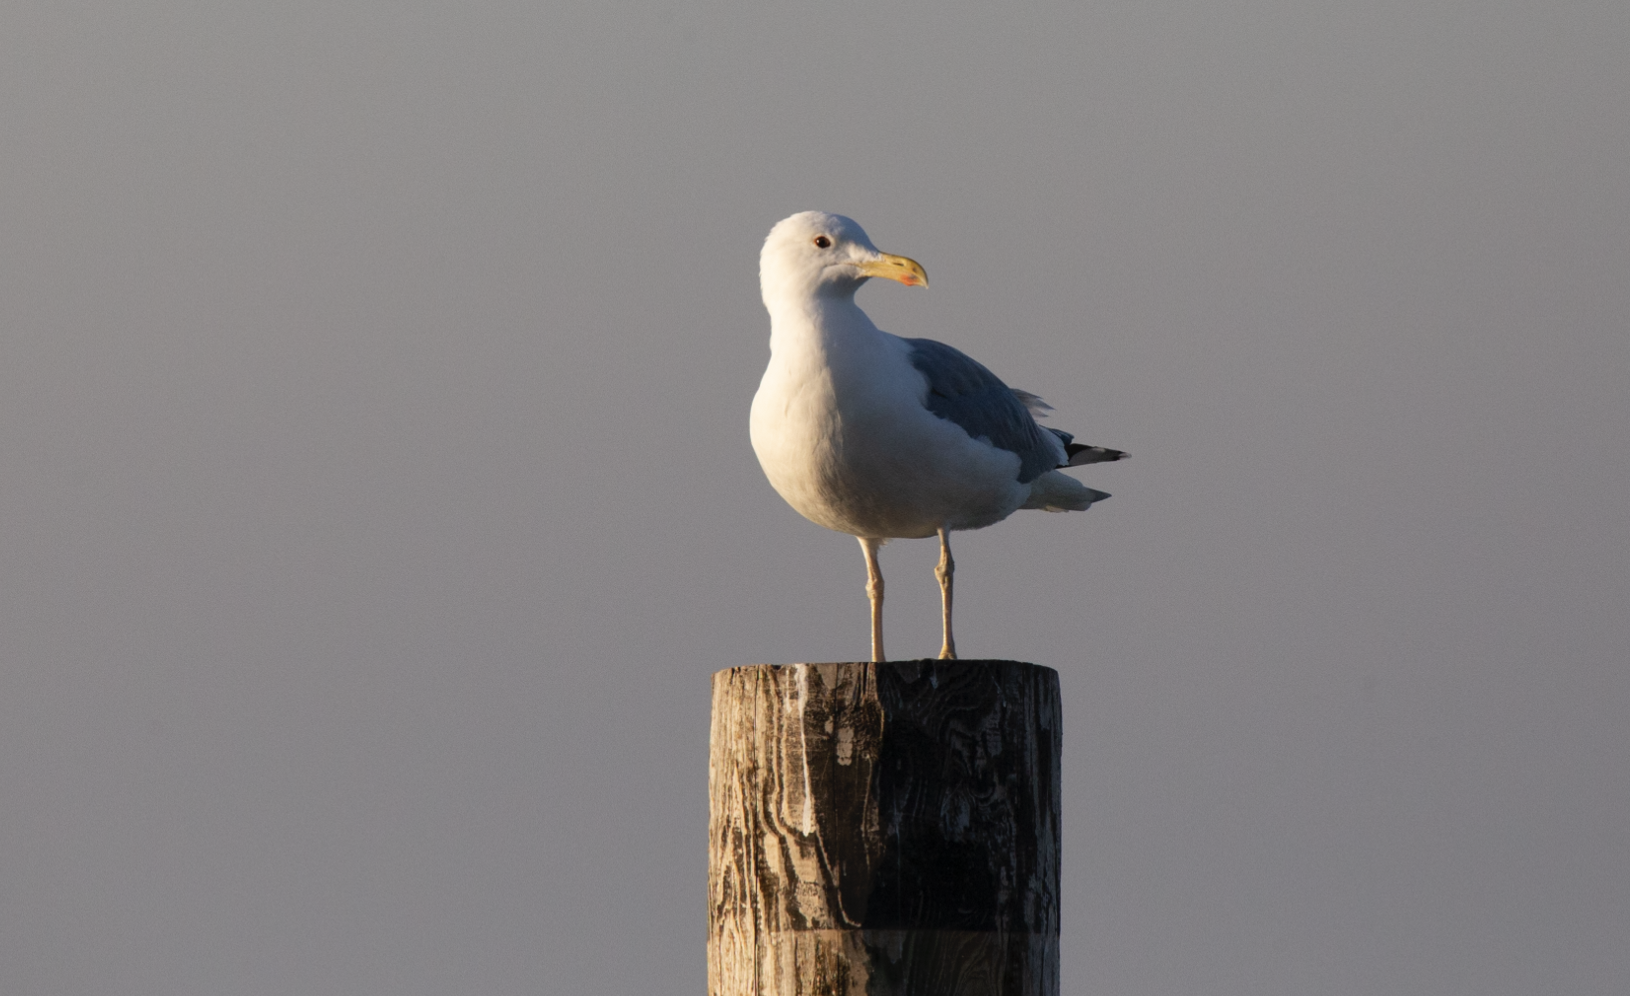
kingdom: Animalia
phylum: Chordata
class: Aves
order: Charadriiformes
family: Laridae
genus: Larus
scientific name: Larus cachinnans
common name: Caspian gull
